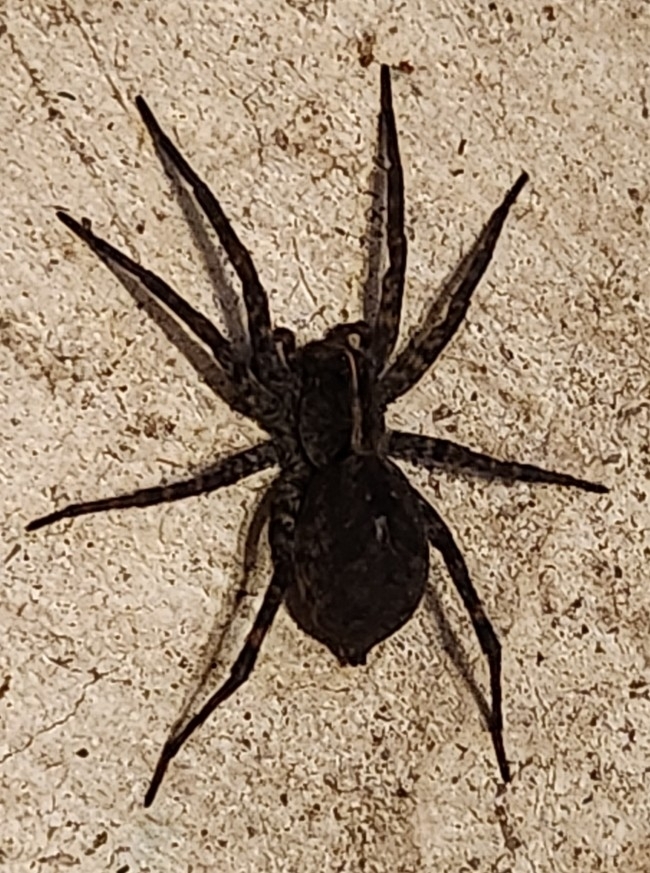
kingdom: Animalia
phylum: Arthropoda
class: Arachnida
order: Araneae
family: Lycosidae
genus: Tigrosa
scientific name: Tigrosa georgicola
